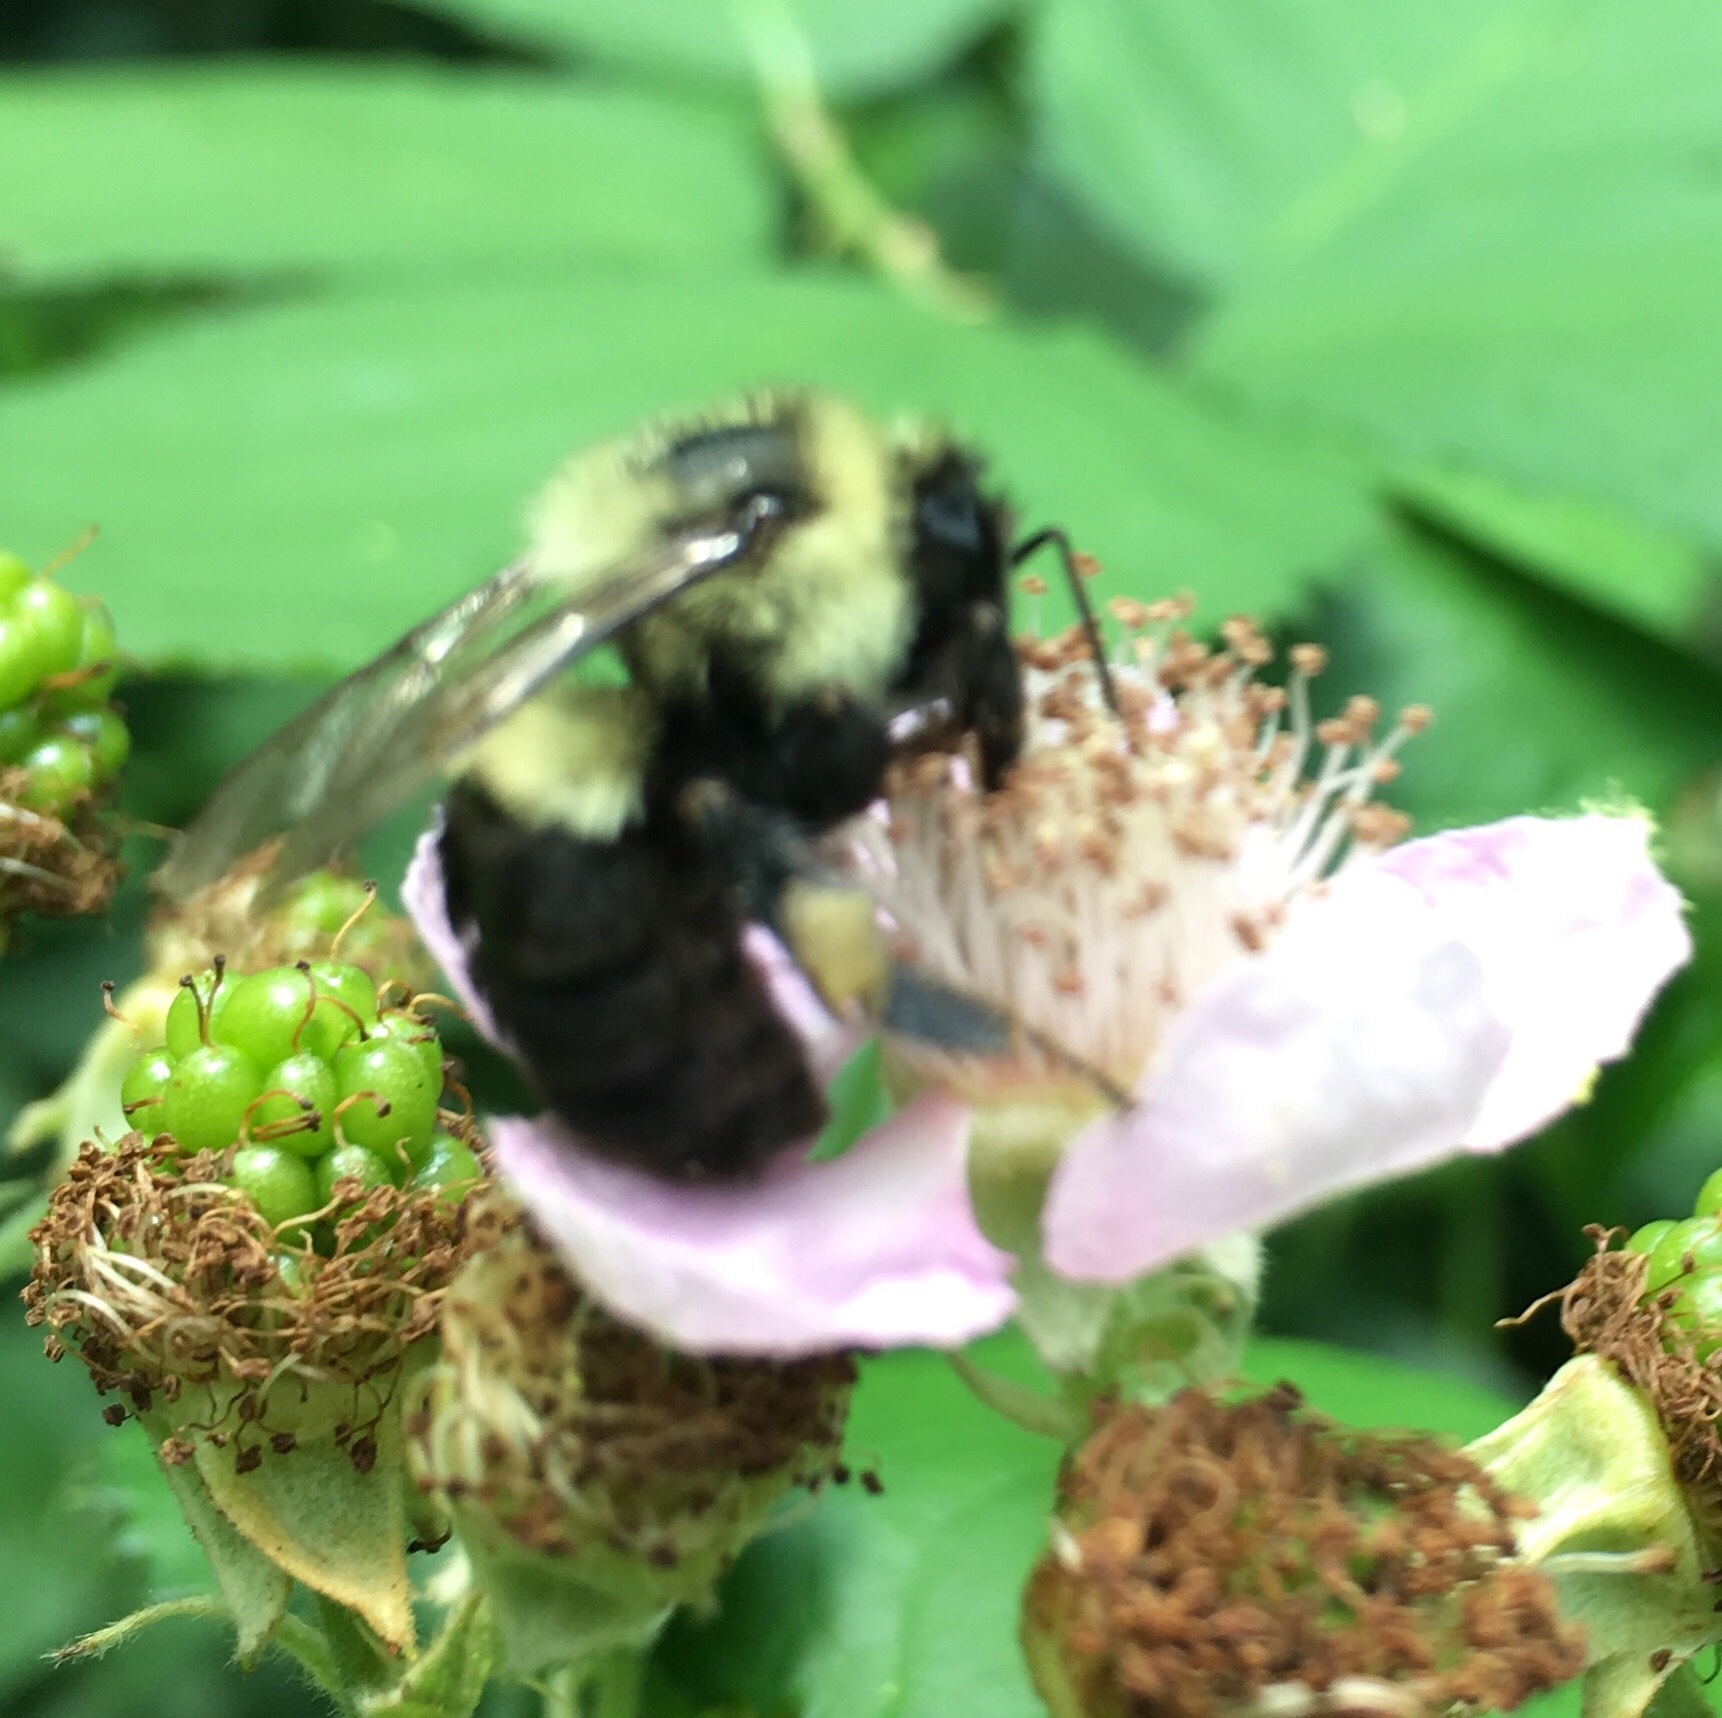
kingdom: Animalia
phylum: Arthropoda
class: Insecta
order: Hymenoptera
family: Apidae
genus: Bombus
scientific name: Bombus impatiens
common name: Common eastern bumble bee
